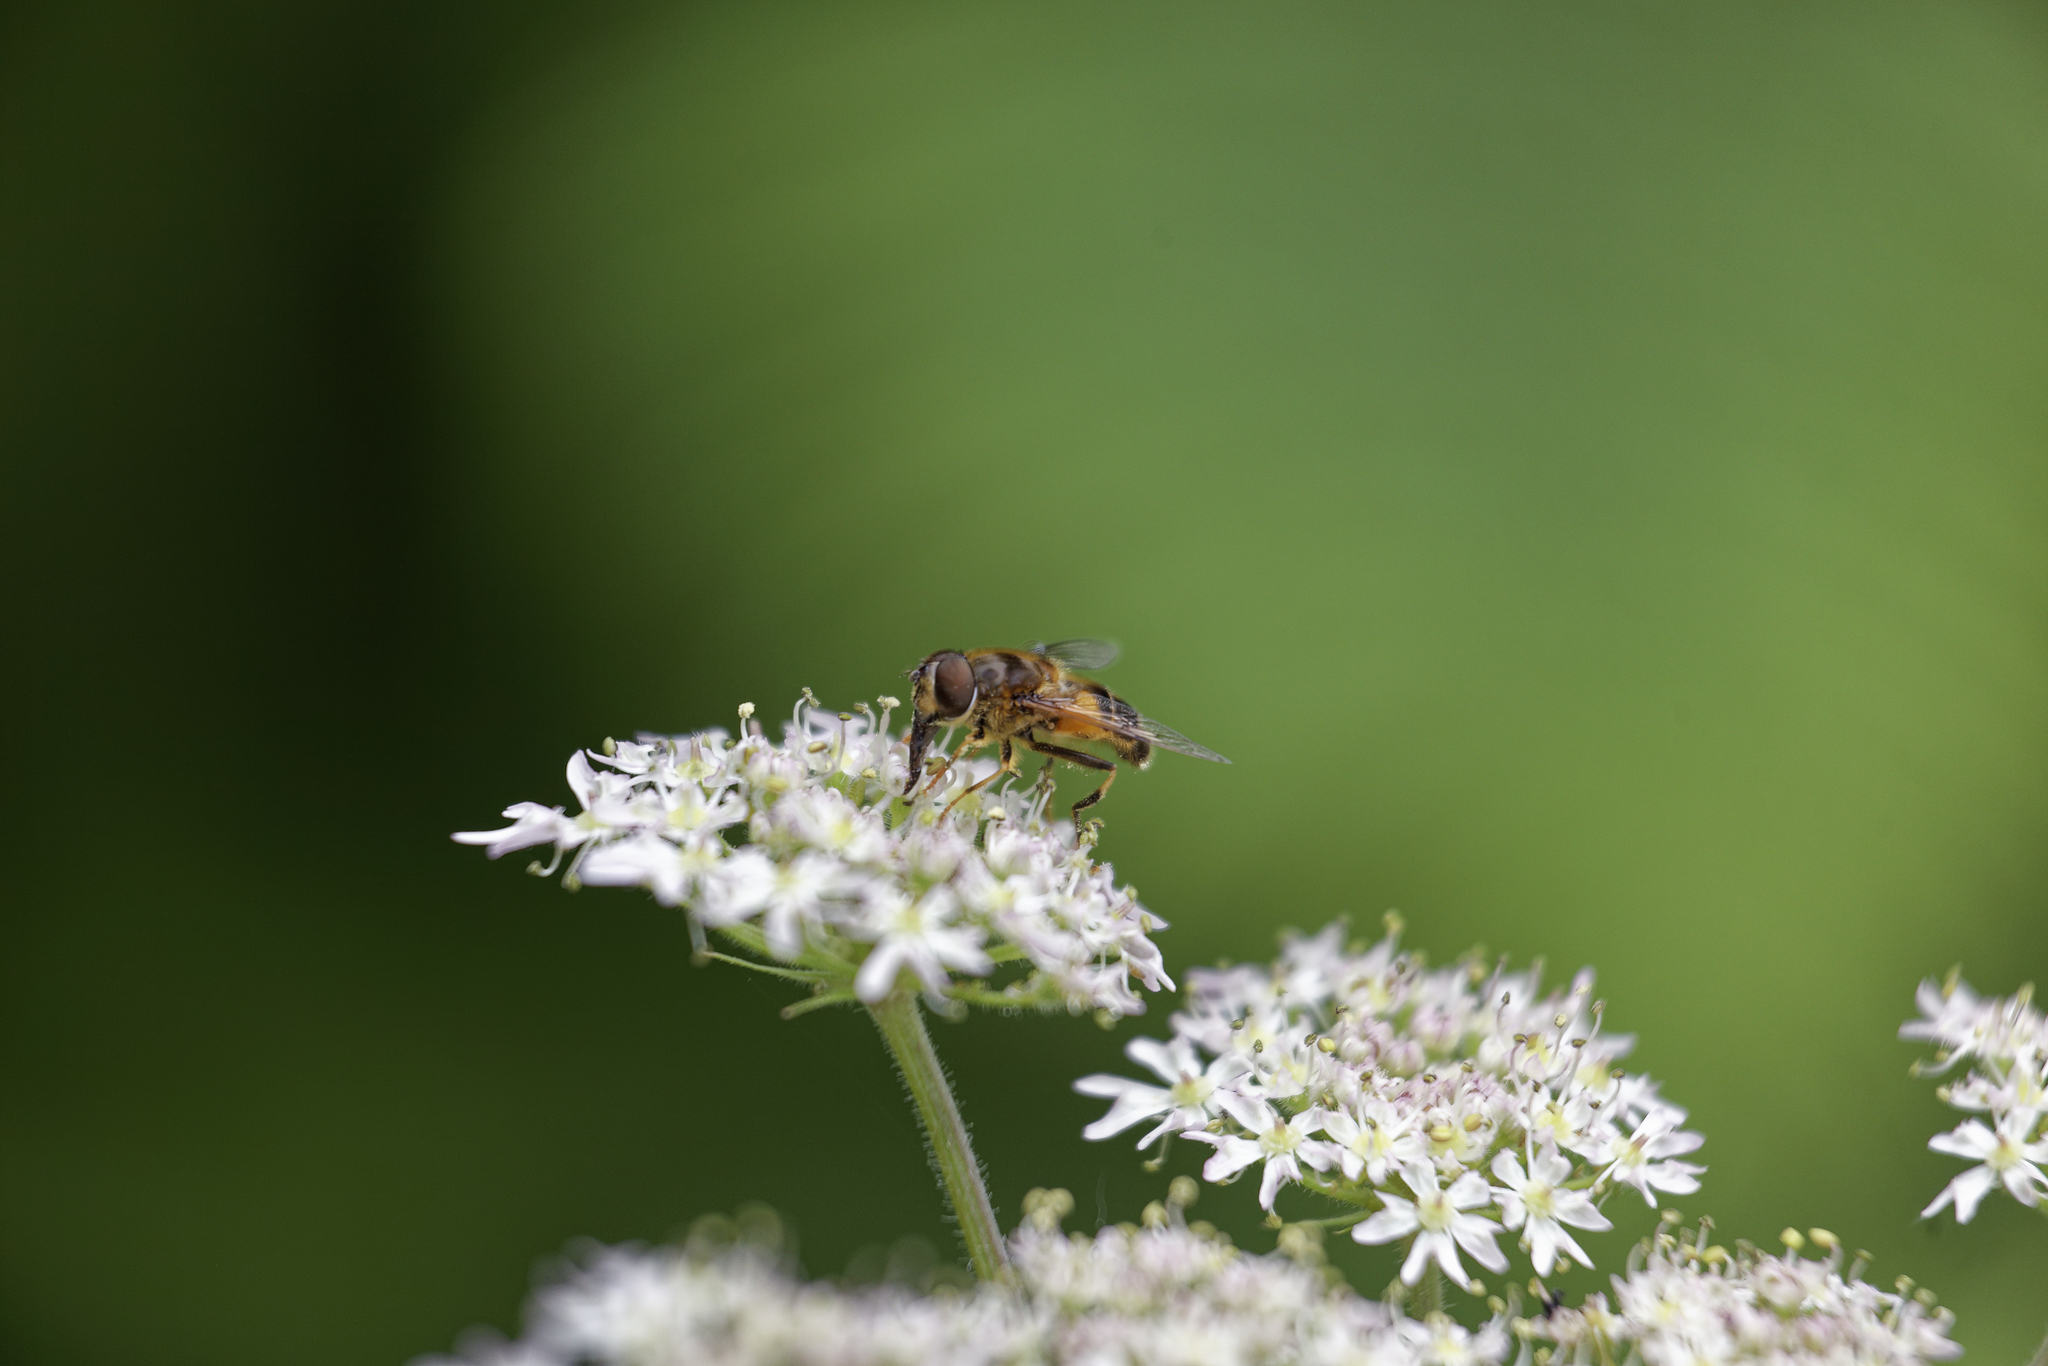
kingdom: Animalia
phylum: Arthropoda
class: Insecta
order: Diptera
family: Syrphidae
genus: Eristalis
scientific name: Eristalis pertinax
